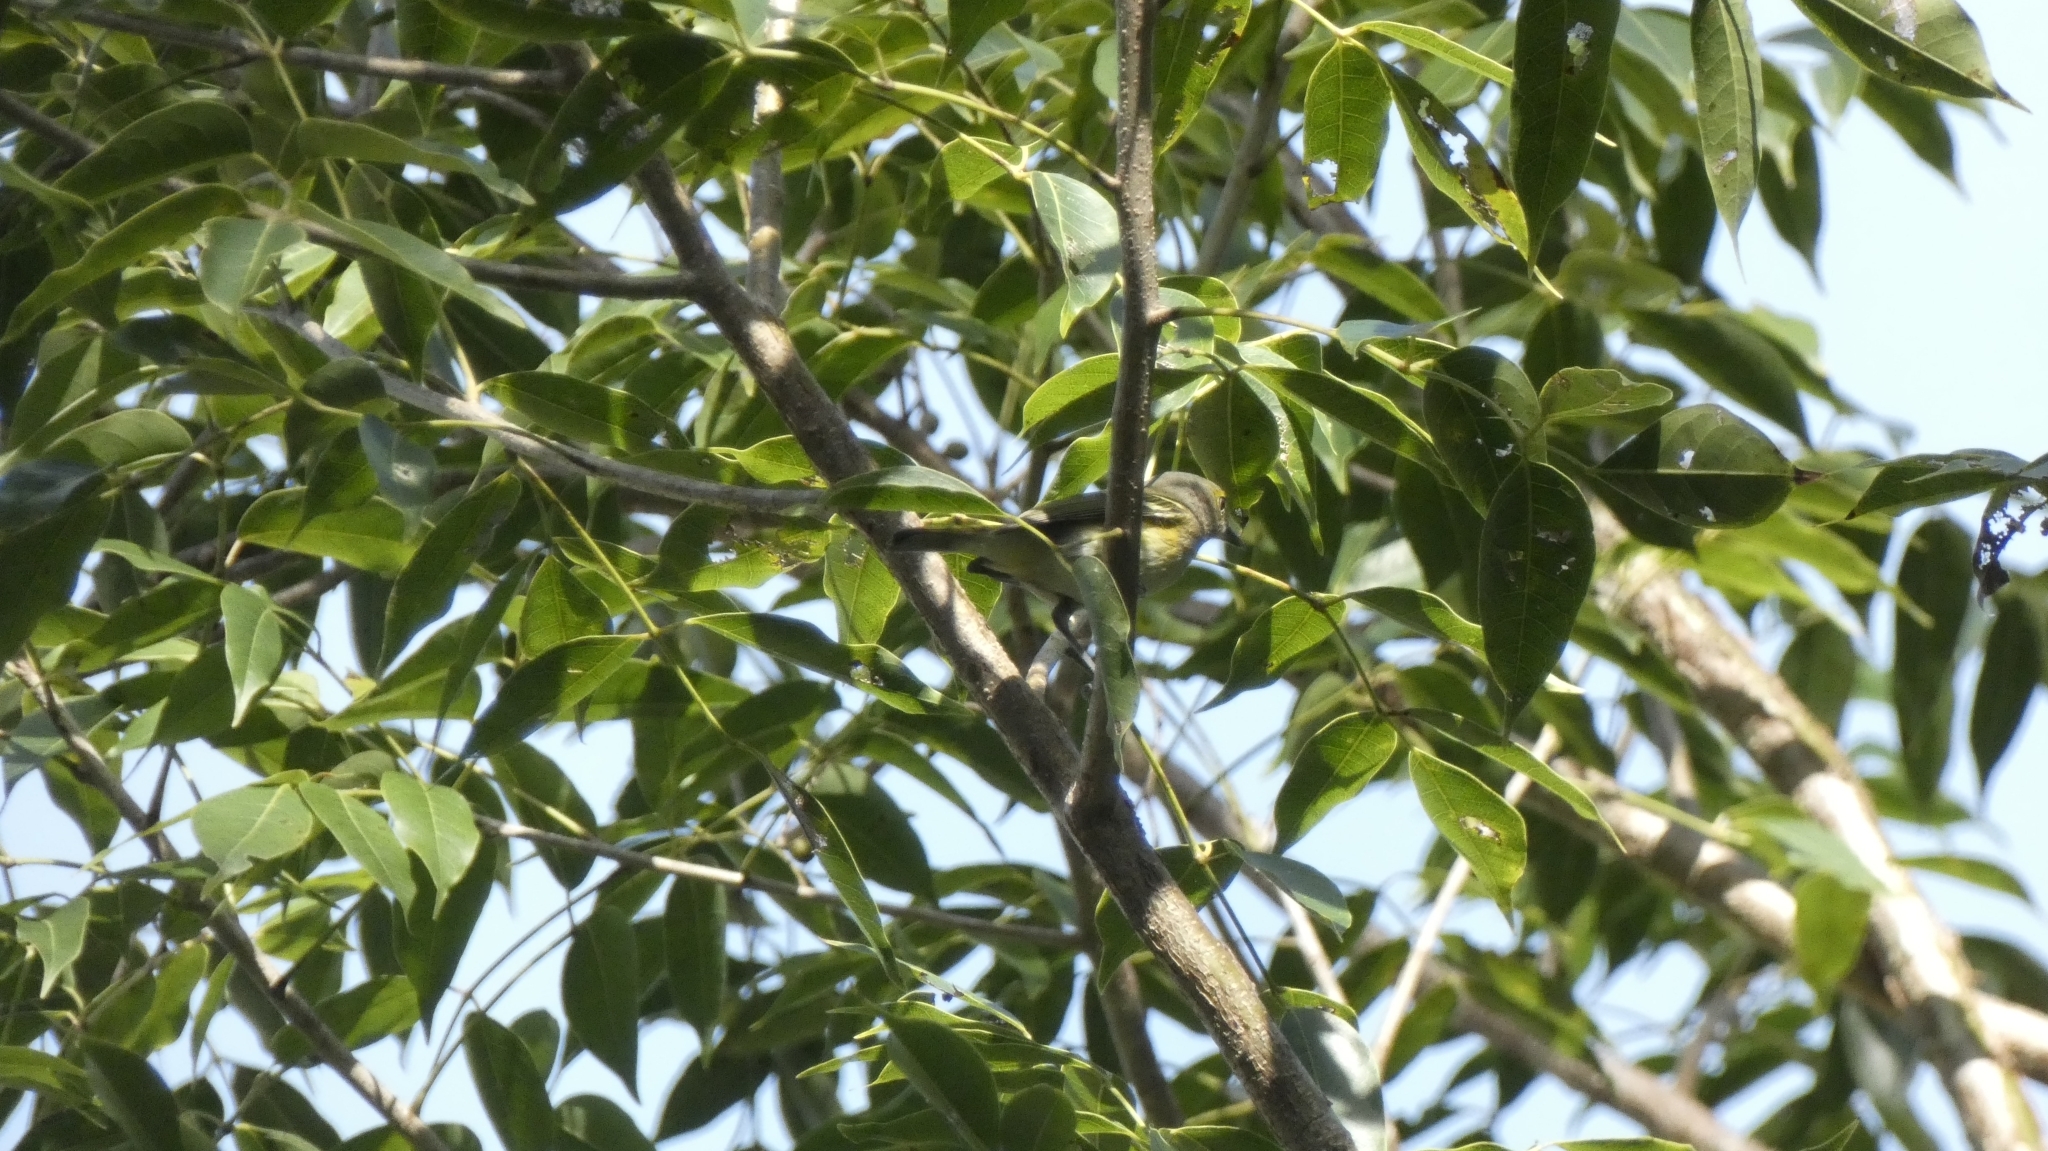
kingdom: Animalia
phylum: Chordata
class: Aves
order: Passeriformes
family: Vireonidae
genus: Vireo
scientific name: Vireo griseus
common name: White-eyed vireo
